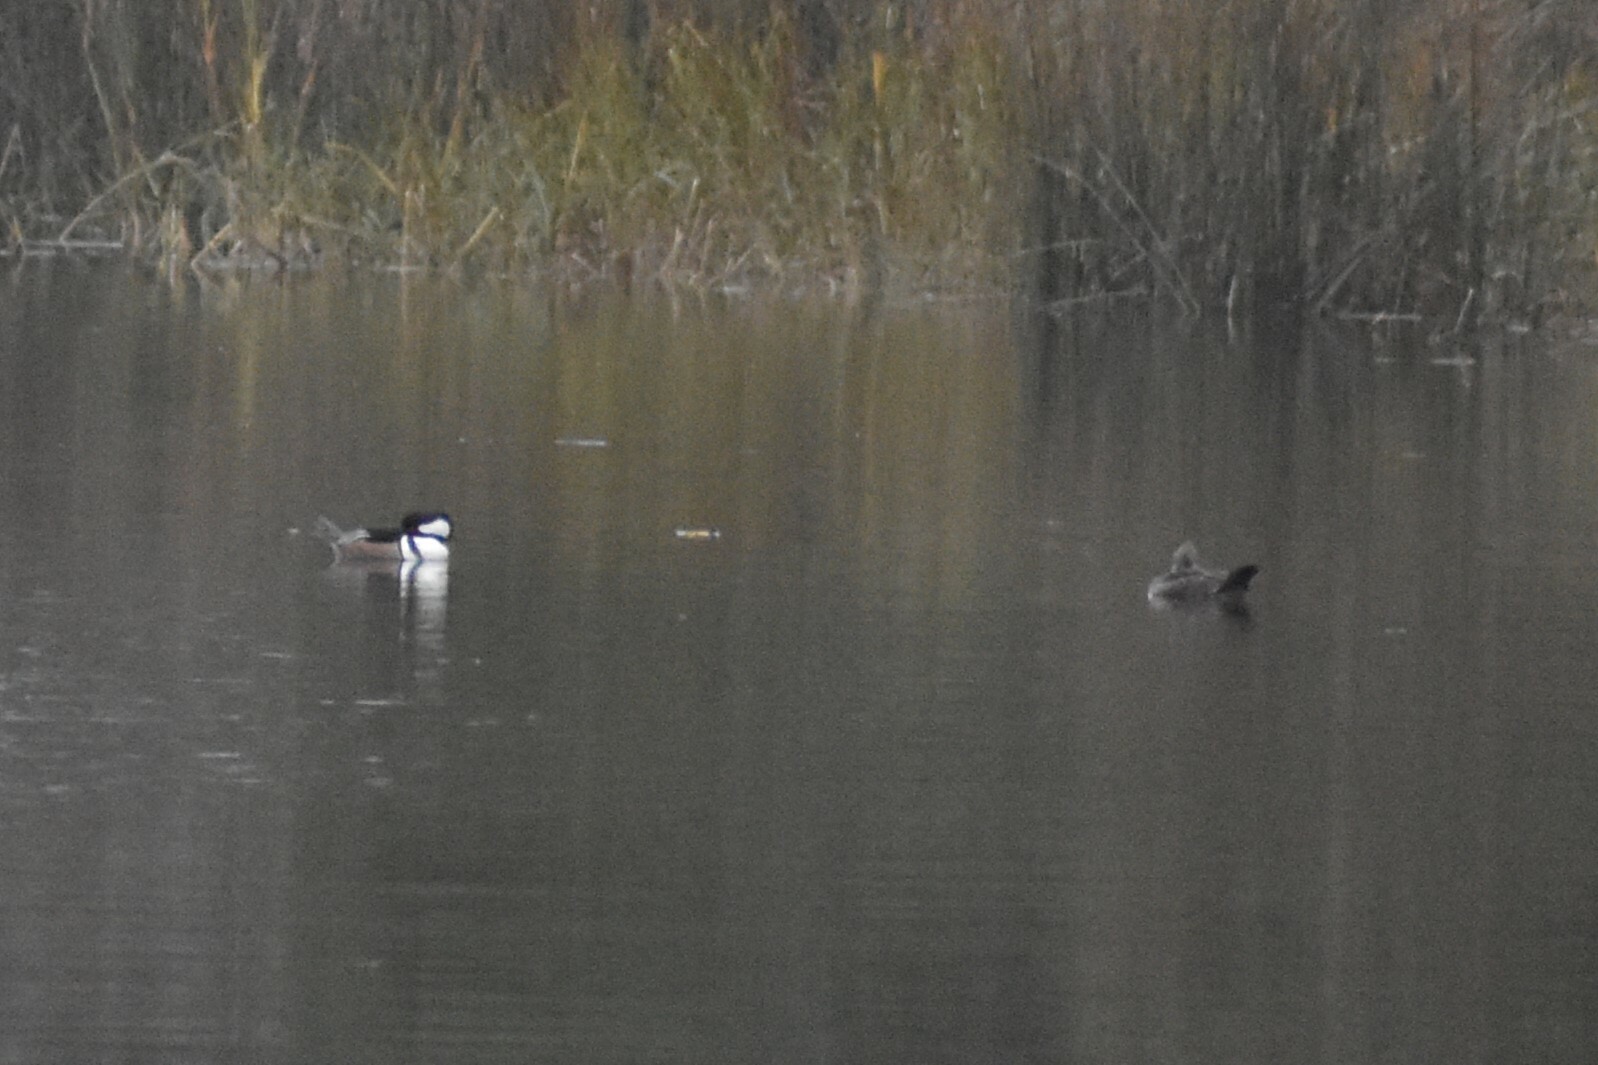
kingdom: Animalia
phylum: Chordata
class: Aves
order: Anseriformes
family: Anatidae
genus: Lophodytes
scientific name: Lophodytes cucullatus
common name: Hooded merganser
